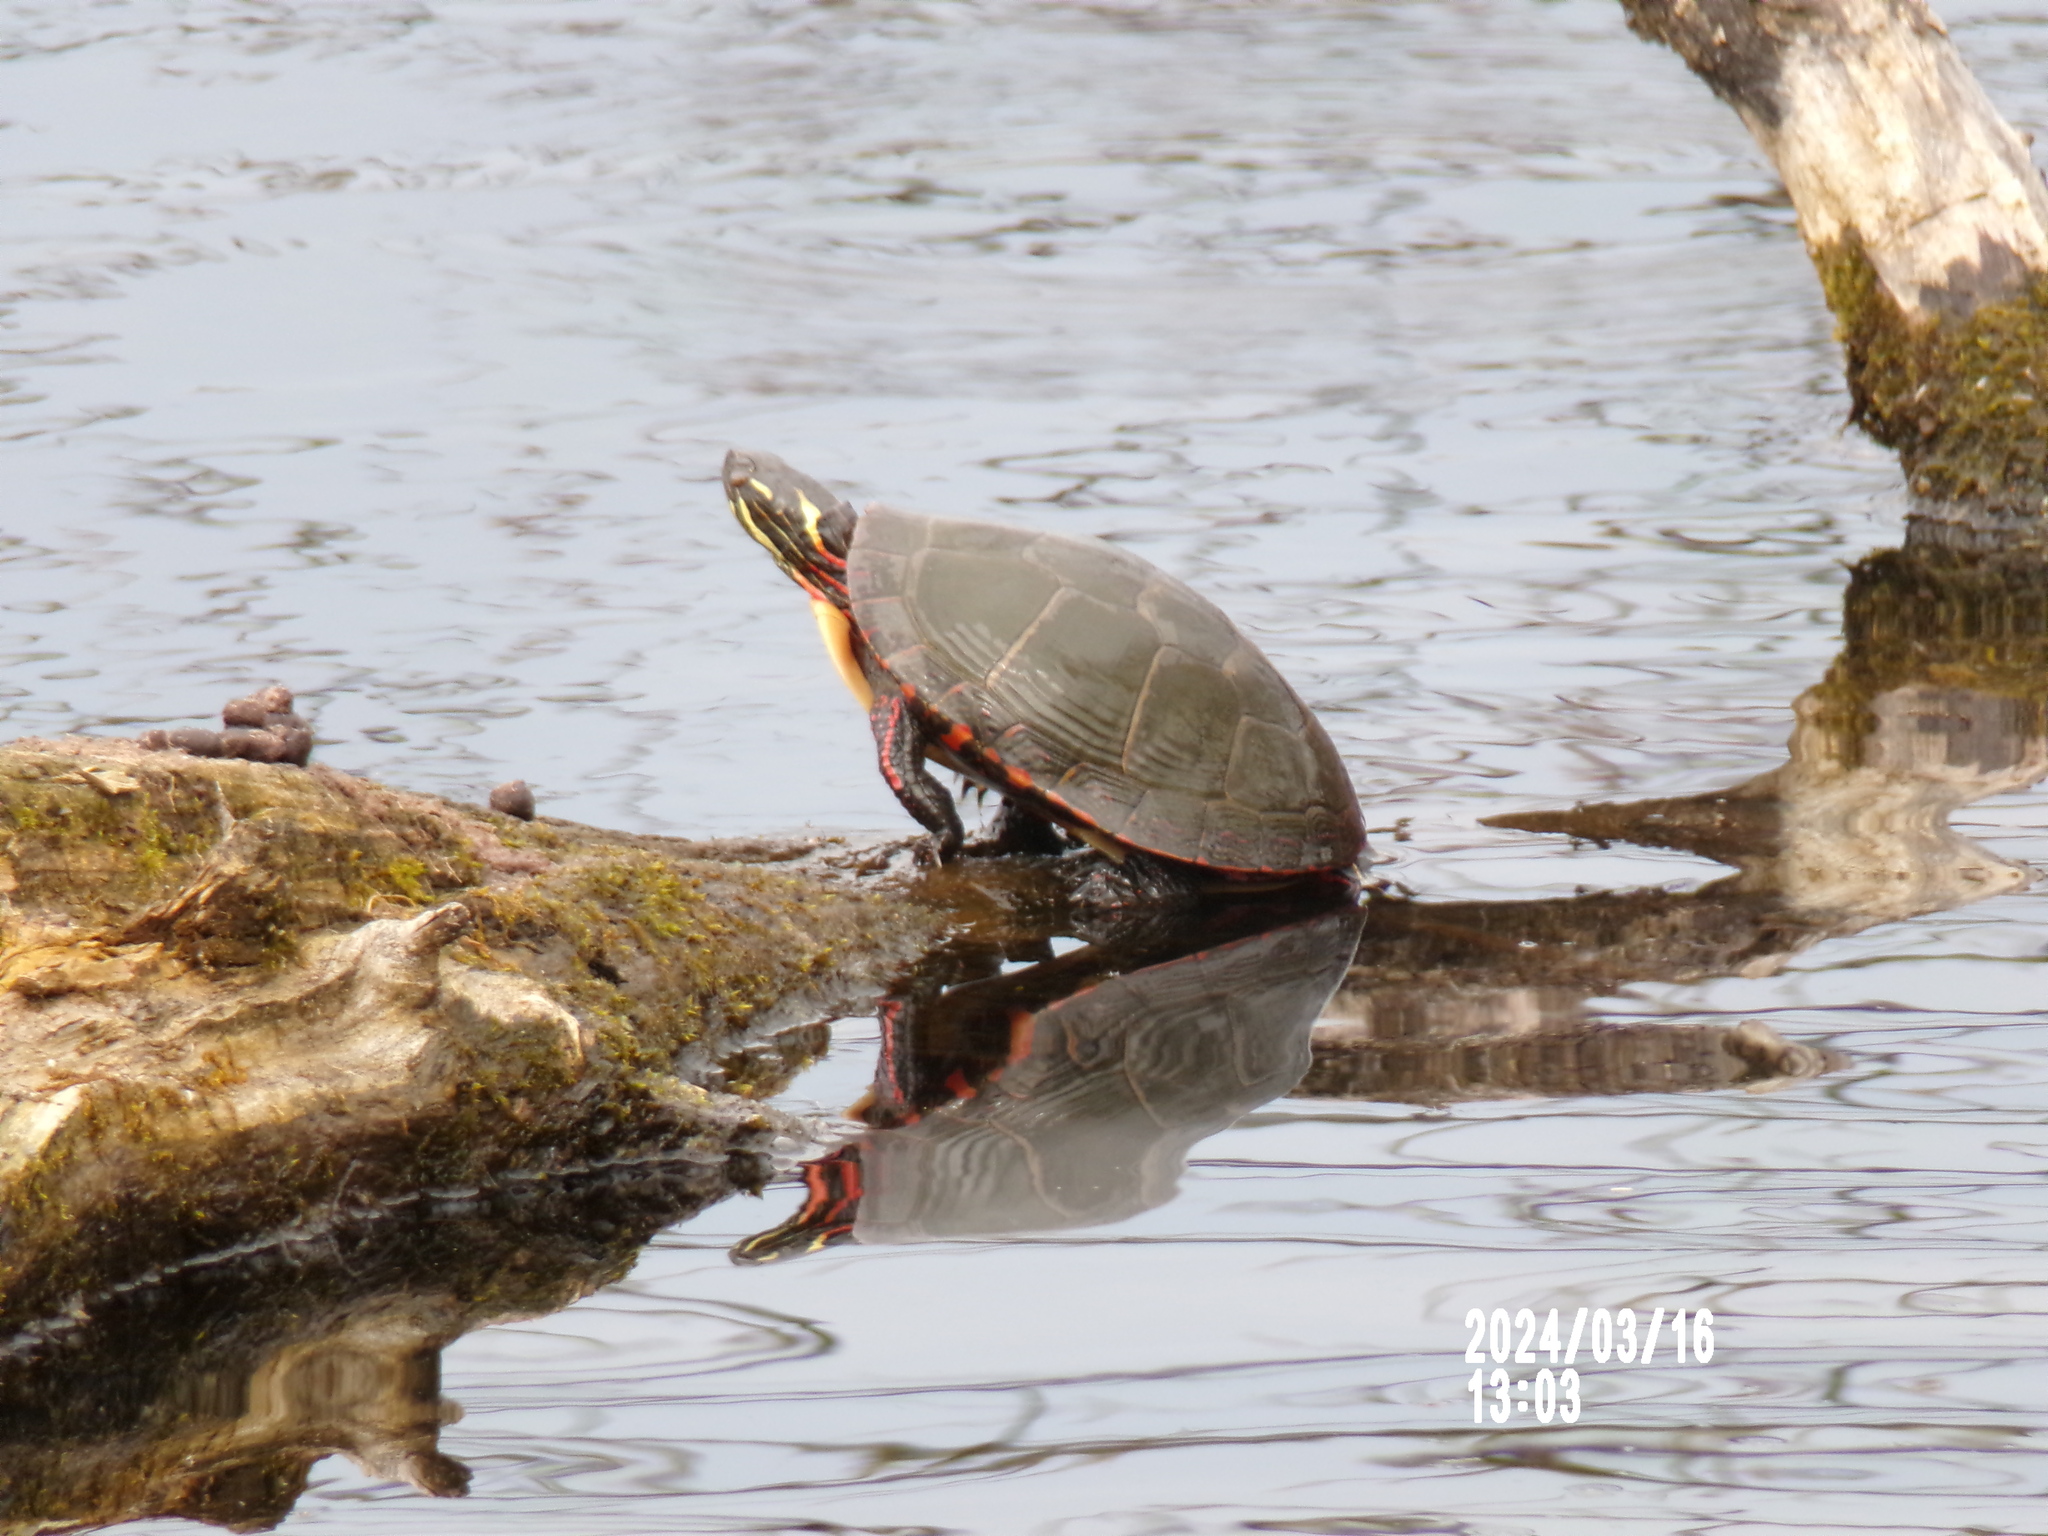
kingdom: Animalia
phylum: Chordata
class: Testudines
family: Emydidae
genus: Chrysemys
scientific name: Chrysemys picta
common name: Painted turtle
